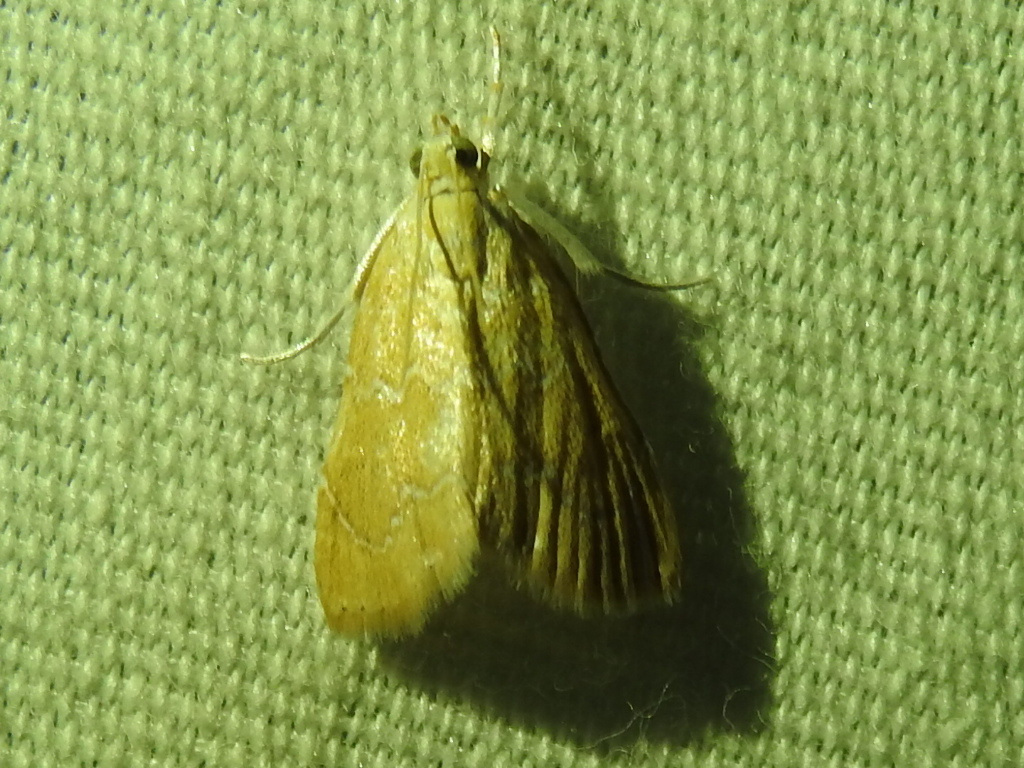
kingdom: Animalia
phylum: Arthropoda
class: Insecta
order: Lepidoptera
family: Crambidae
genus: Glaphyria
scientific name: Glaphyria sesquistrialis
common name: White-roped glaphyria
